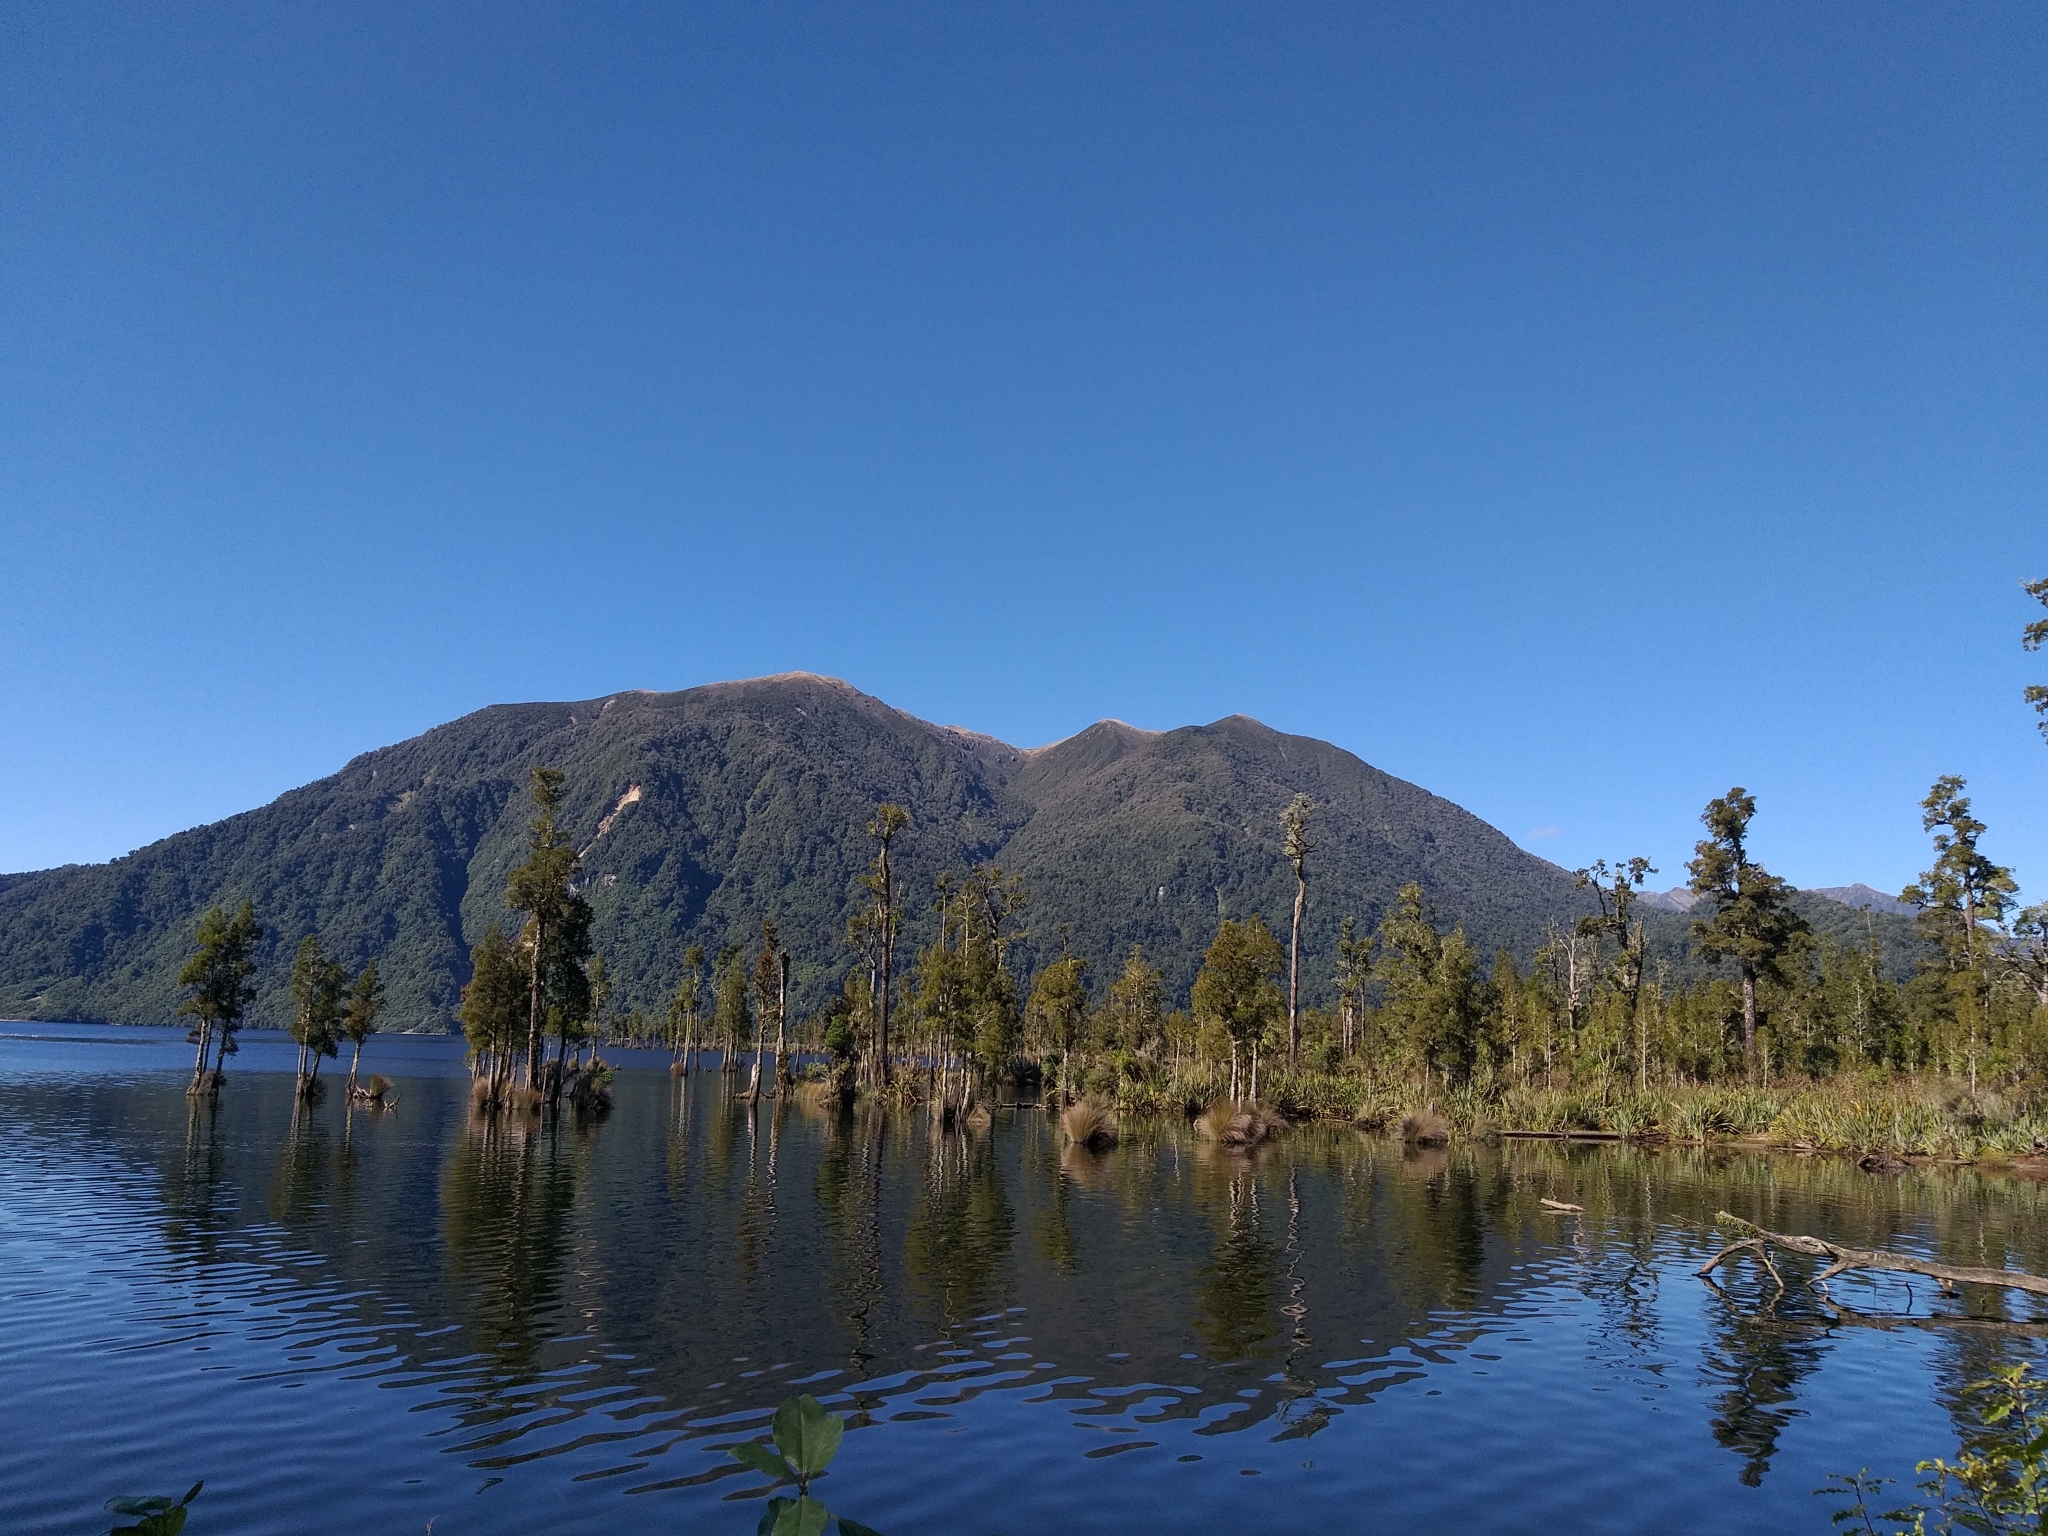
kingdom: Plantae
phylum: Tracheophyta
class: Pinopsida
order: Pinales
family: Podocarpaceae
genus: Dacrycarpus
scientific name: Dacrycarpus dacrydioides
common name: White pine
